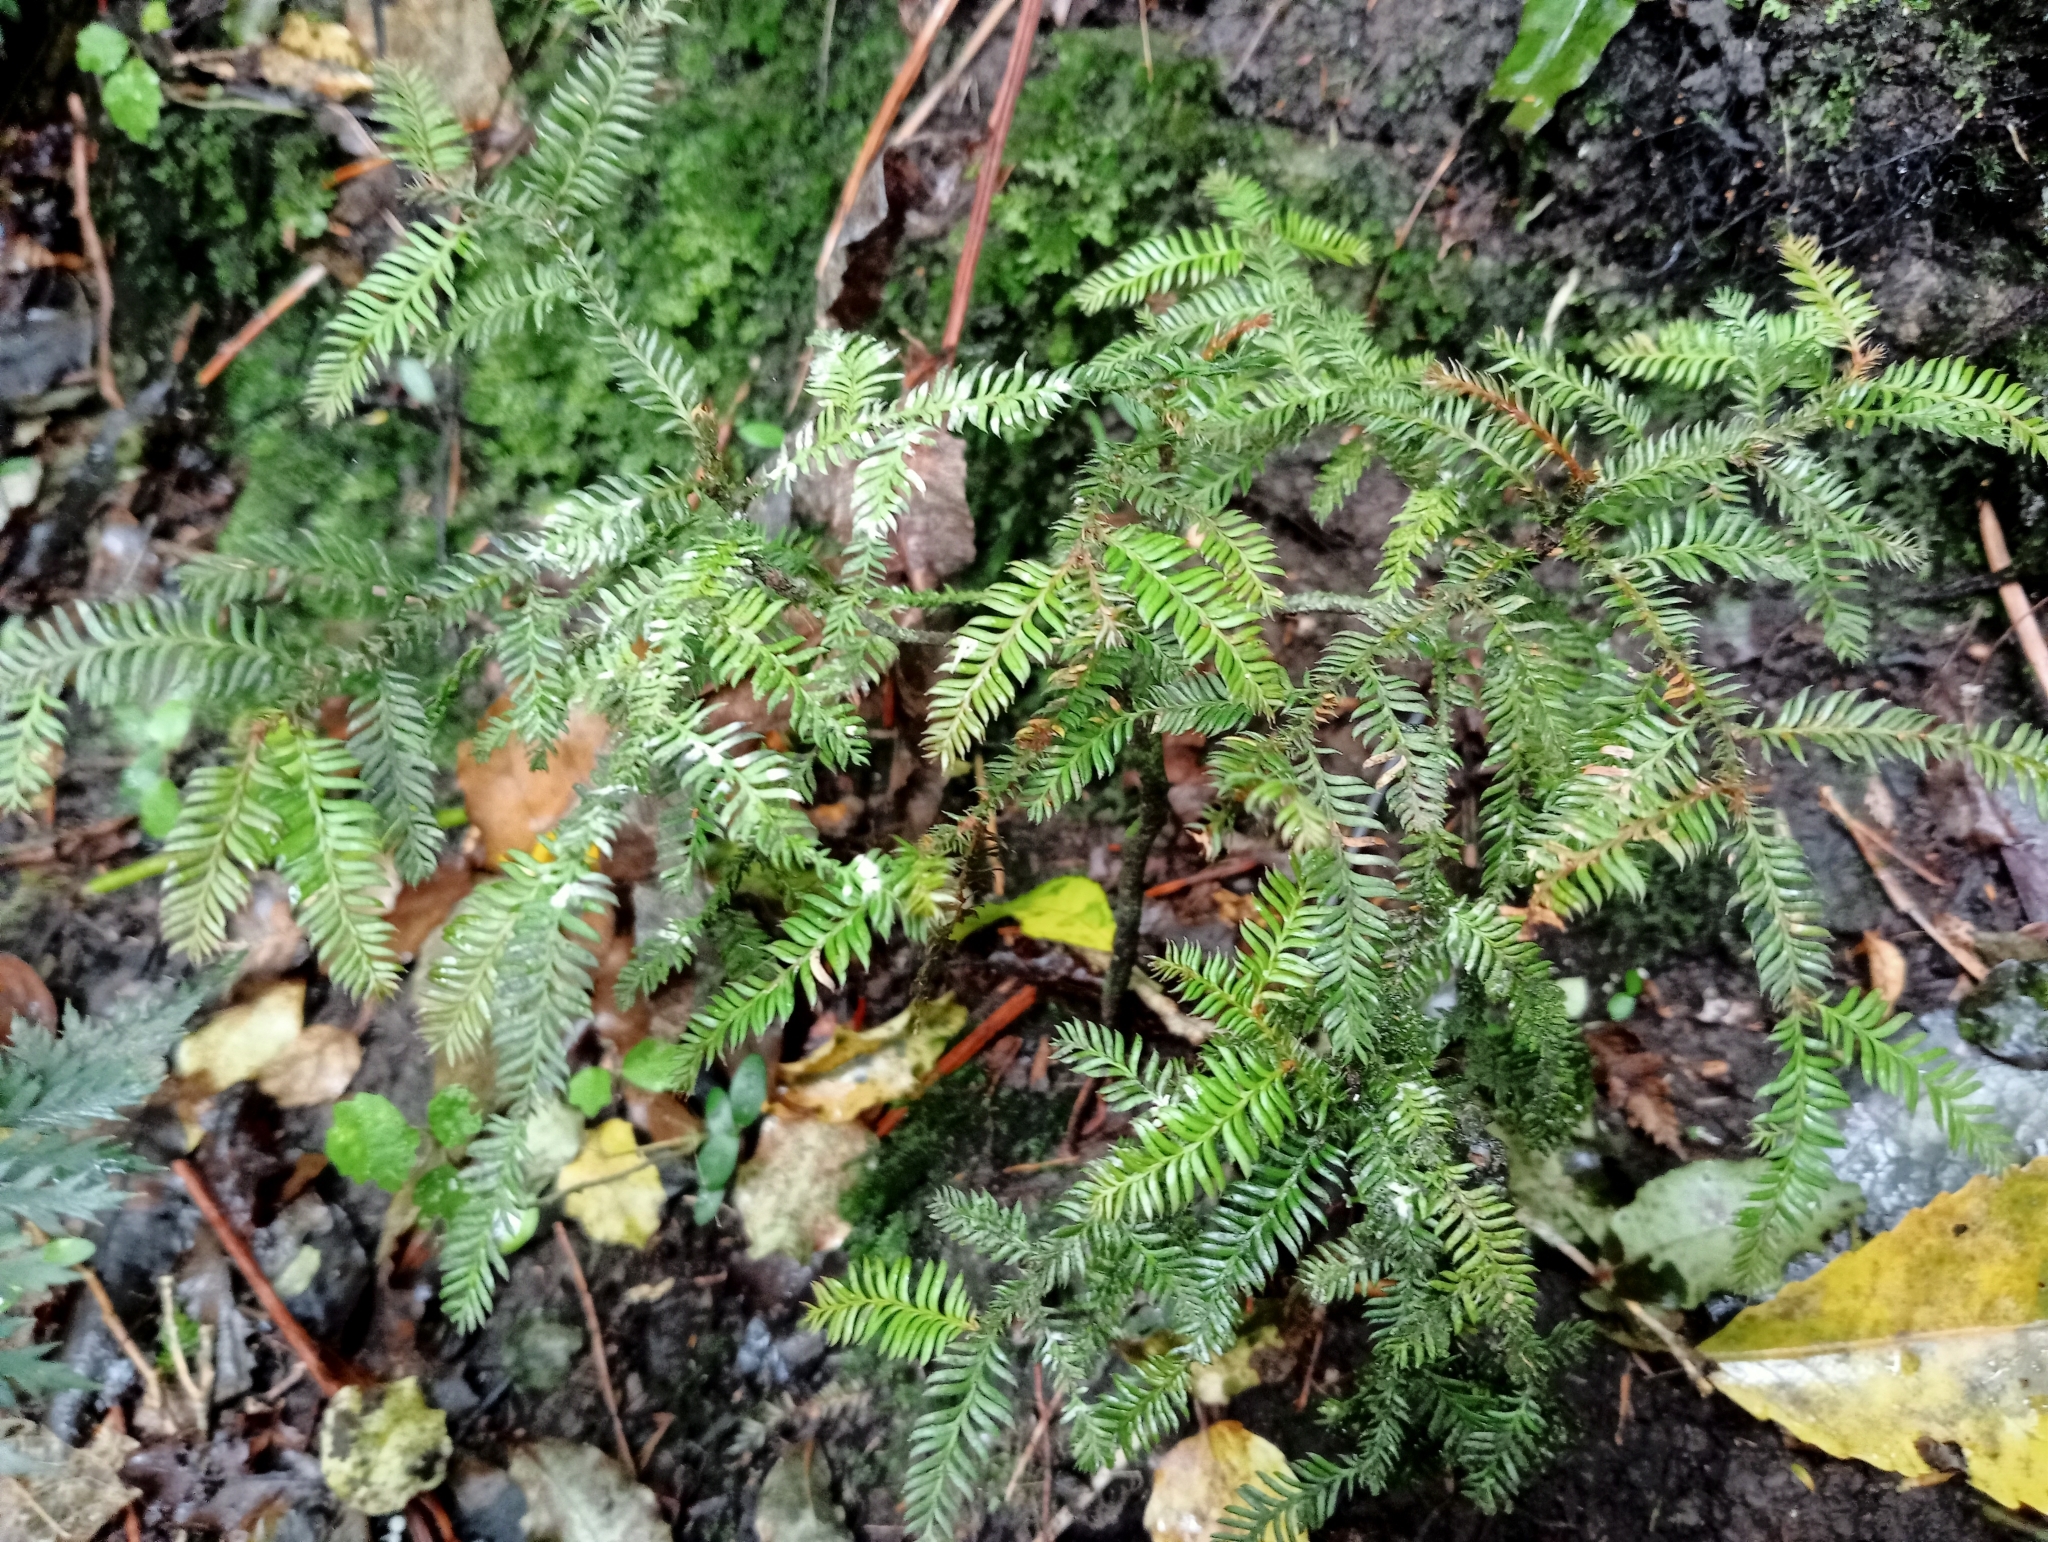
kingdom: Plantae
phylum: Tracheophyta
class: Pinopsida
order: Pinales
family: Podocarpaceae
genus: Dacrycarpus
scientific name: Dacrycarpus dacrydioides
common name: White pine
